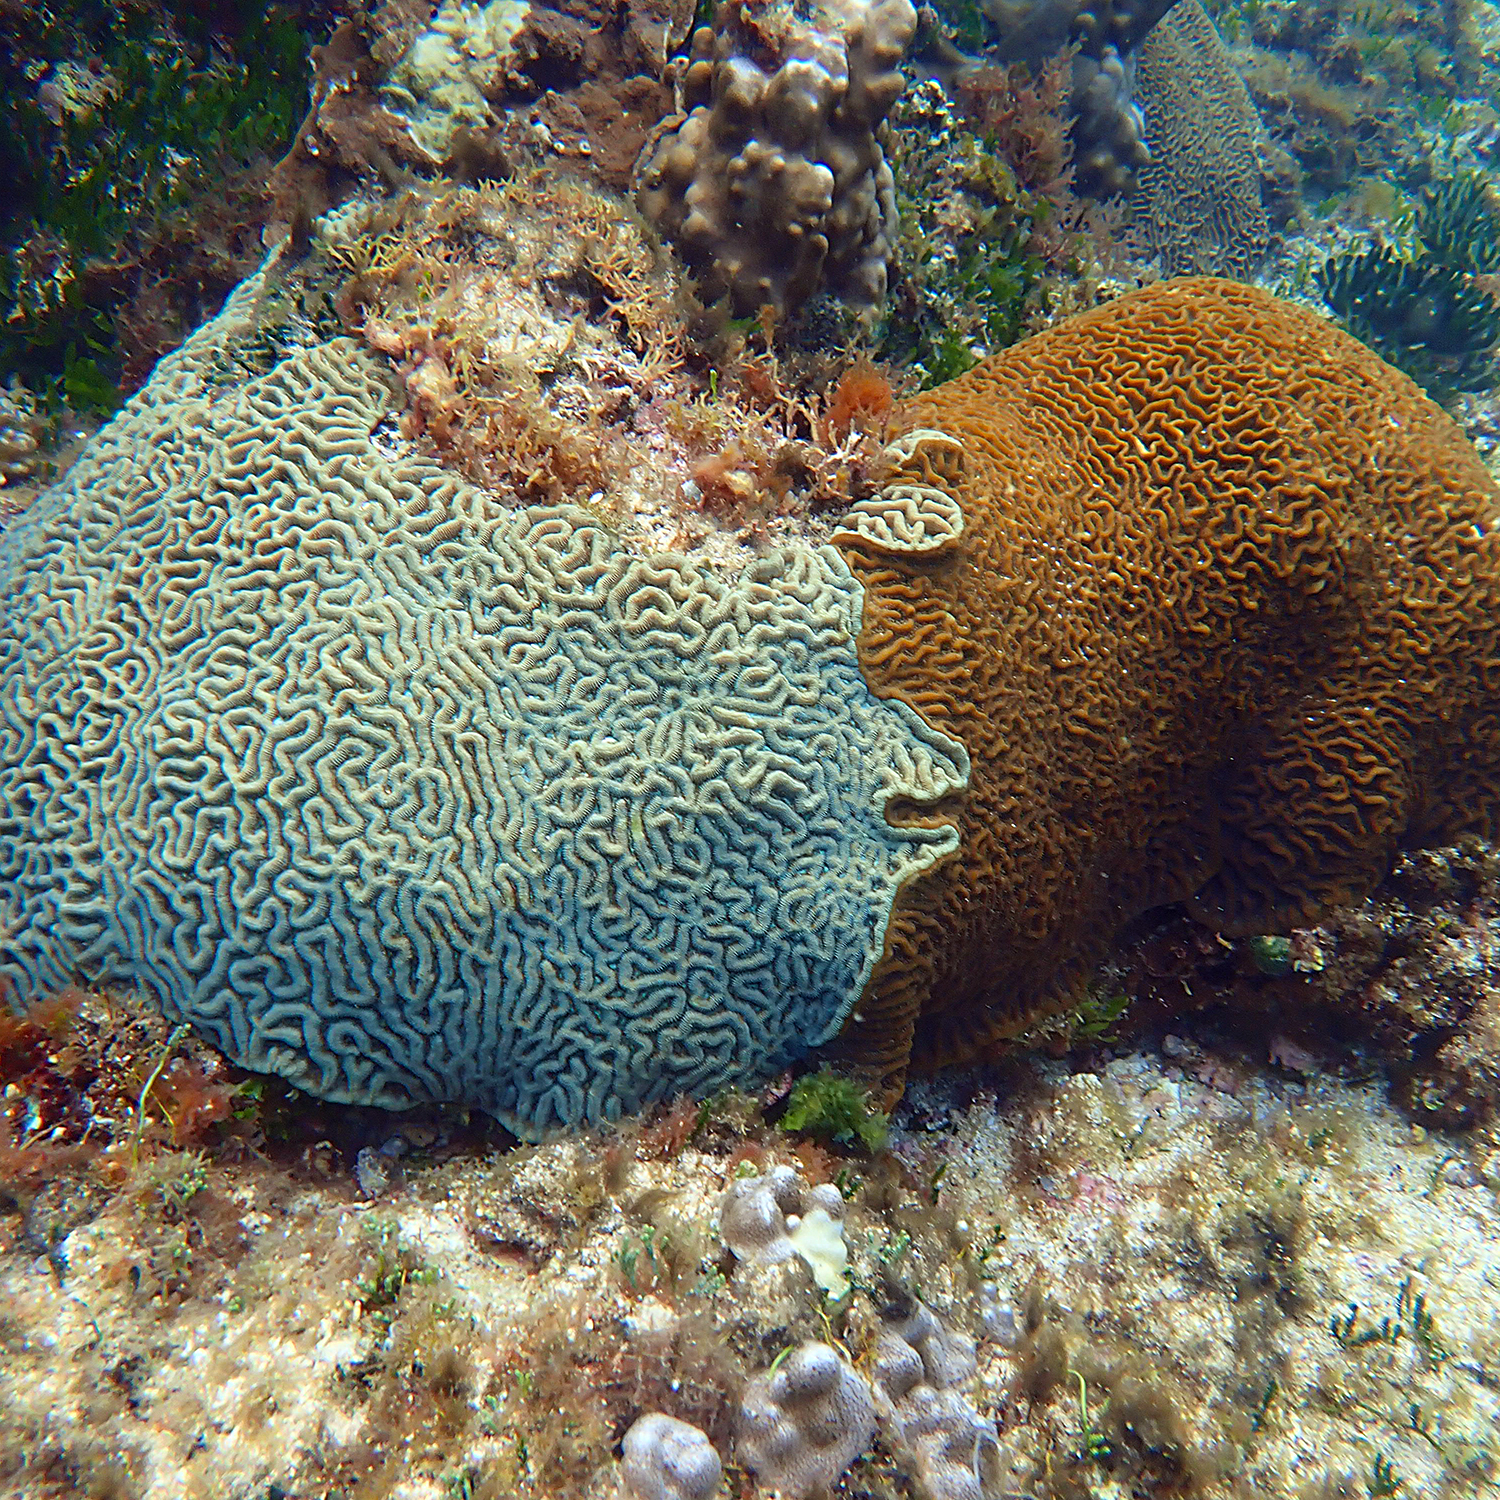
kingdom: Animalia
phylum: Cnidaria
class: Anthozoa
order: Scleractinia
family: Merulinidae
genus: Paragoniastrea
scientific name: Paragoniastrea australensis
